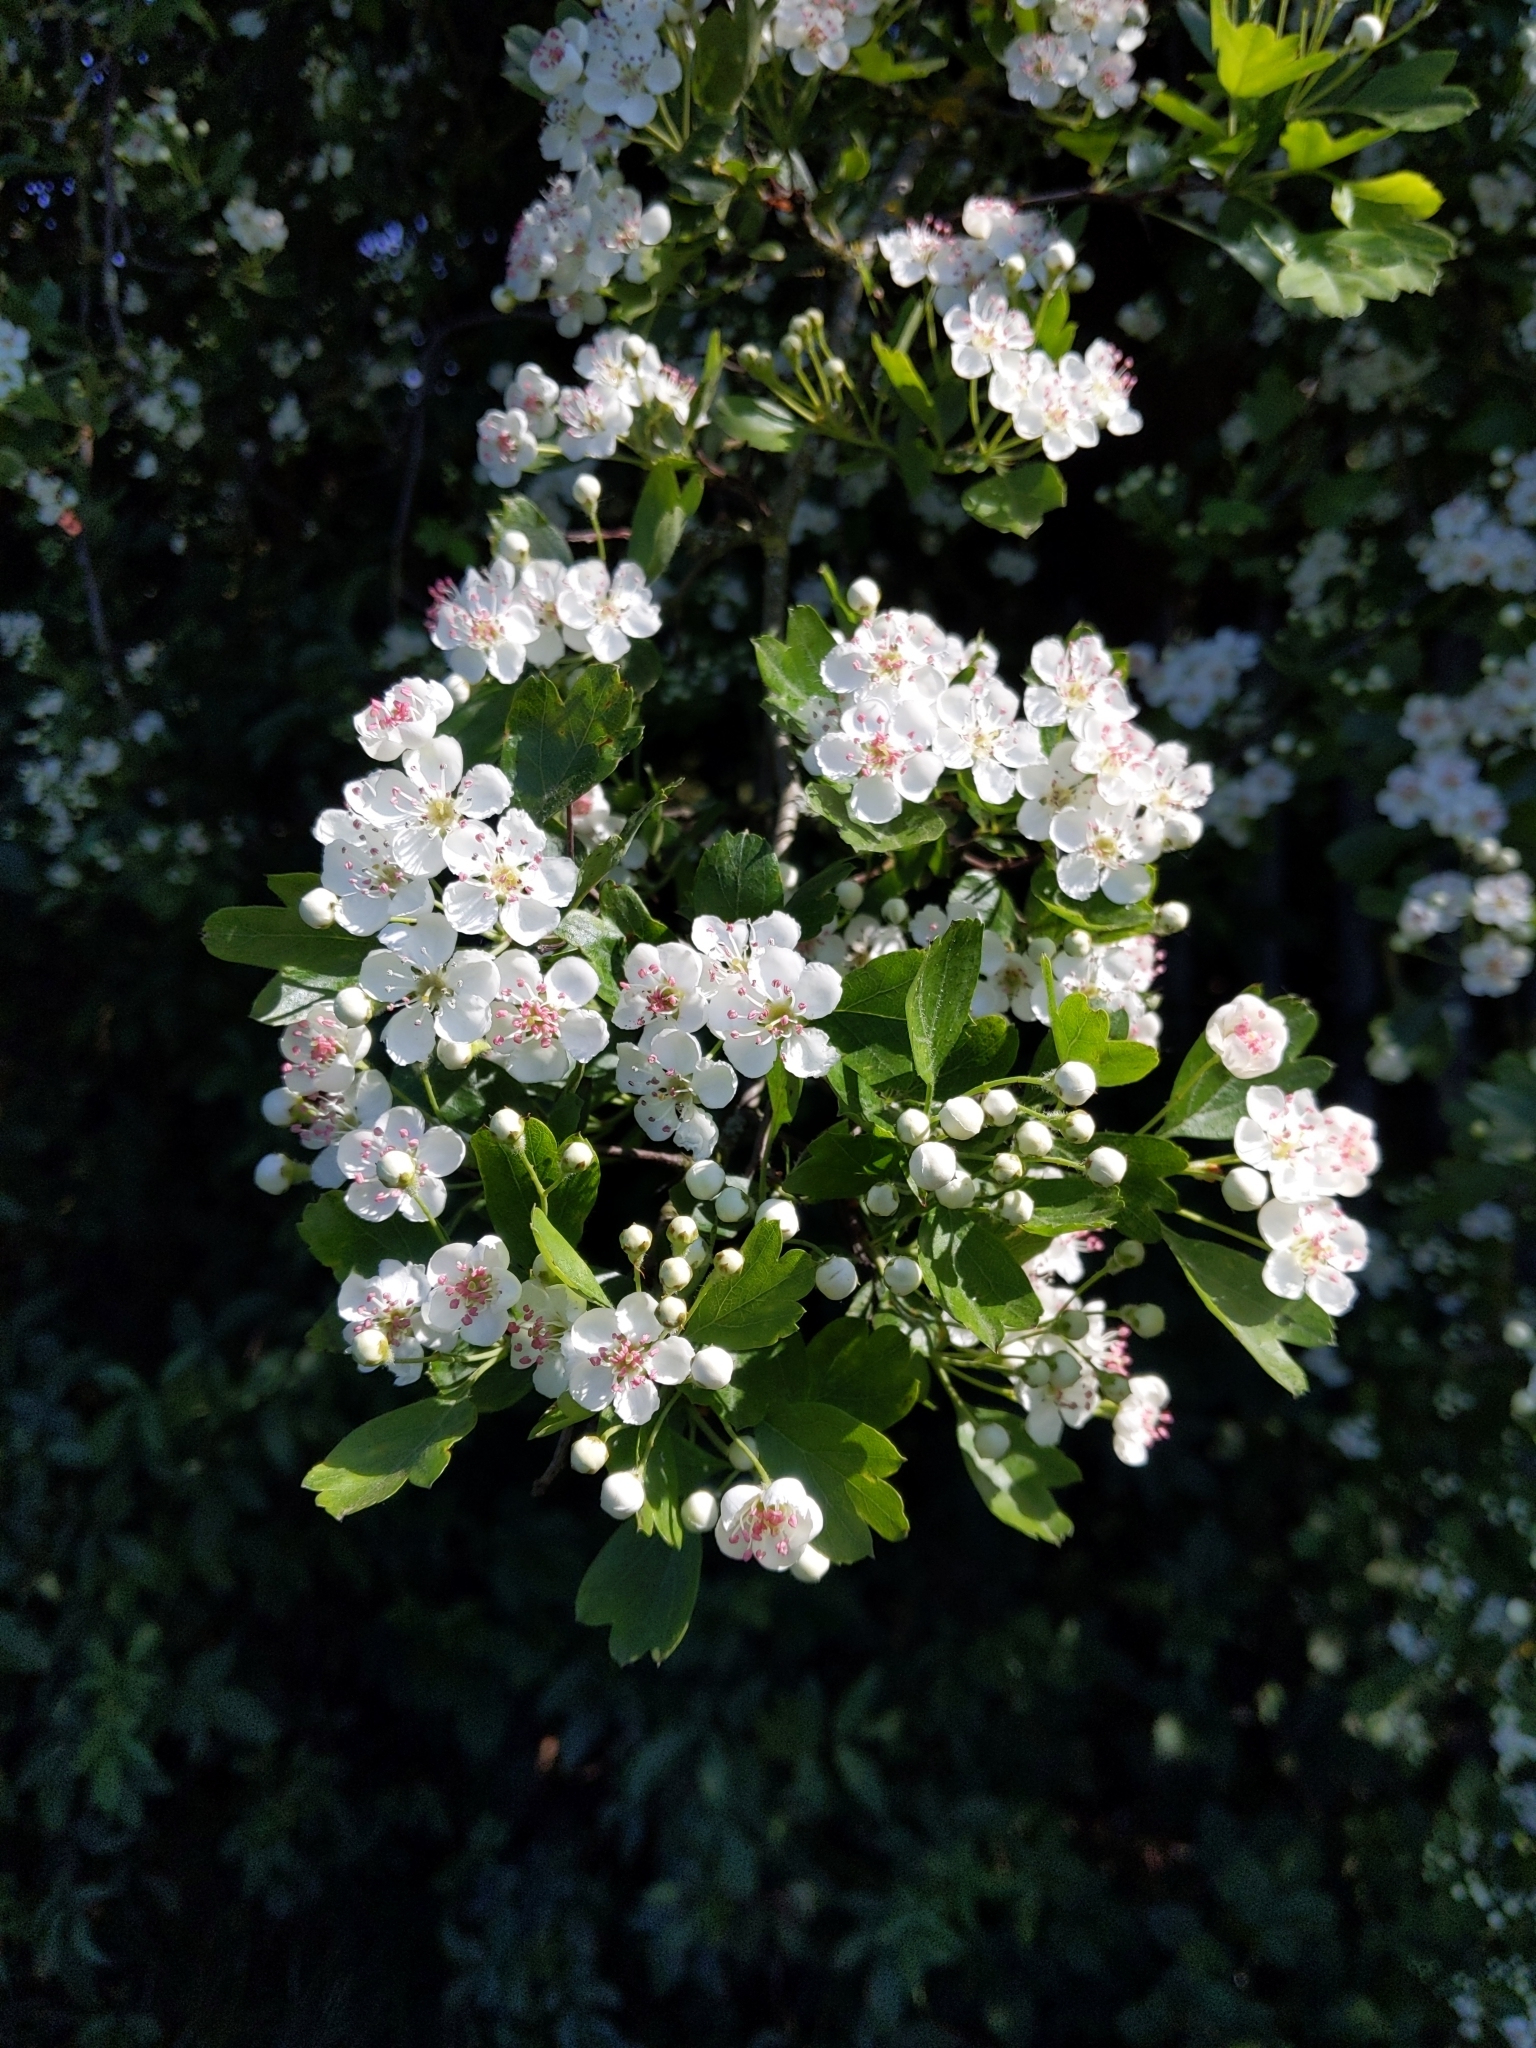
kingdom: Plantae
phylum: Tracheophyta
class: Magnoliopsida
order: Rosales
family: Rosaceae
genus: Crataegus
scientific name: Crataegus monogyna
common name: Hawthorn
